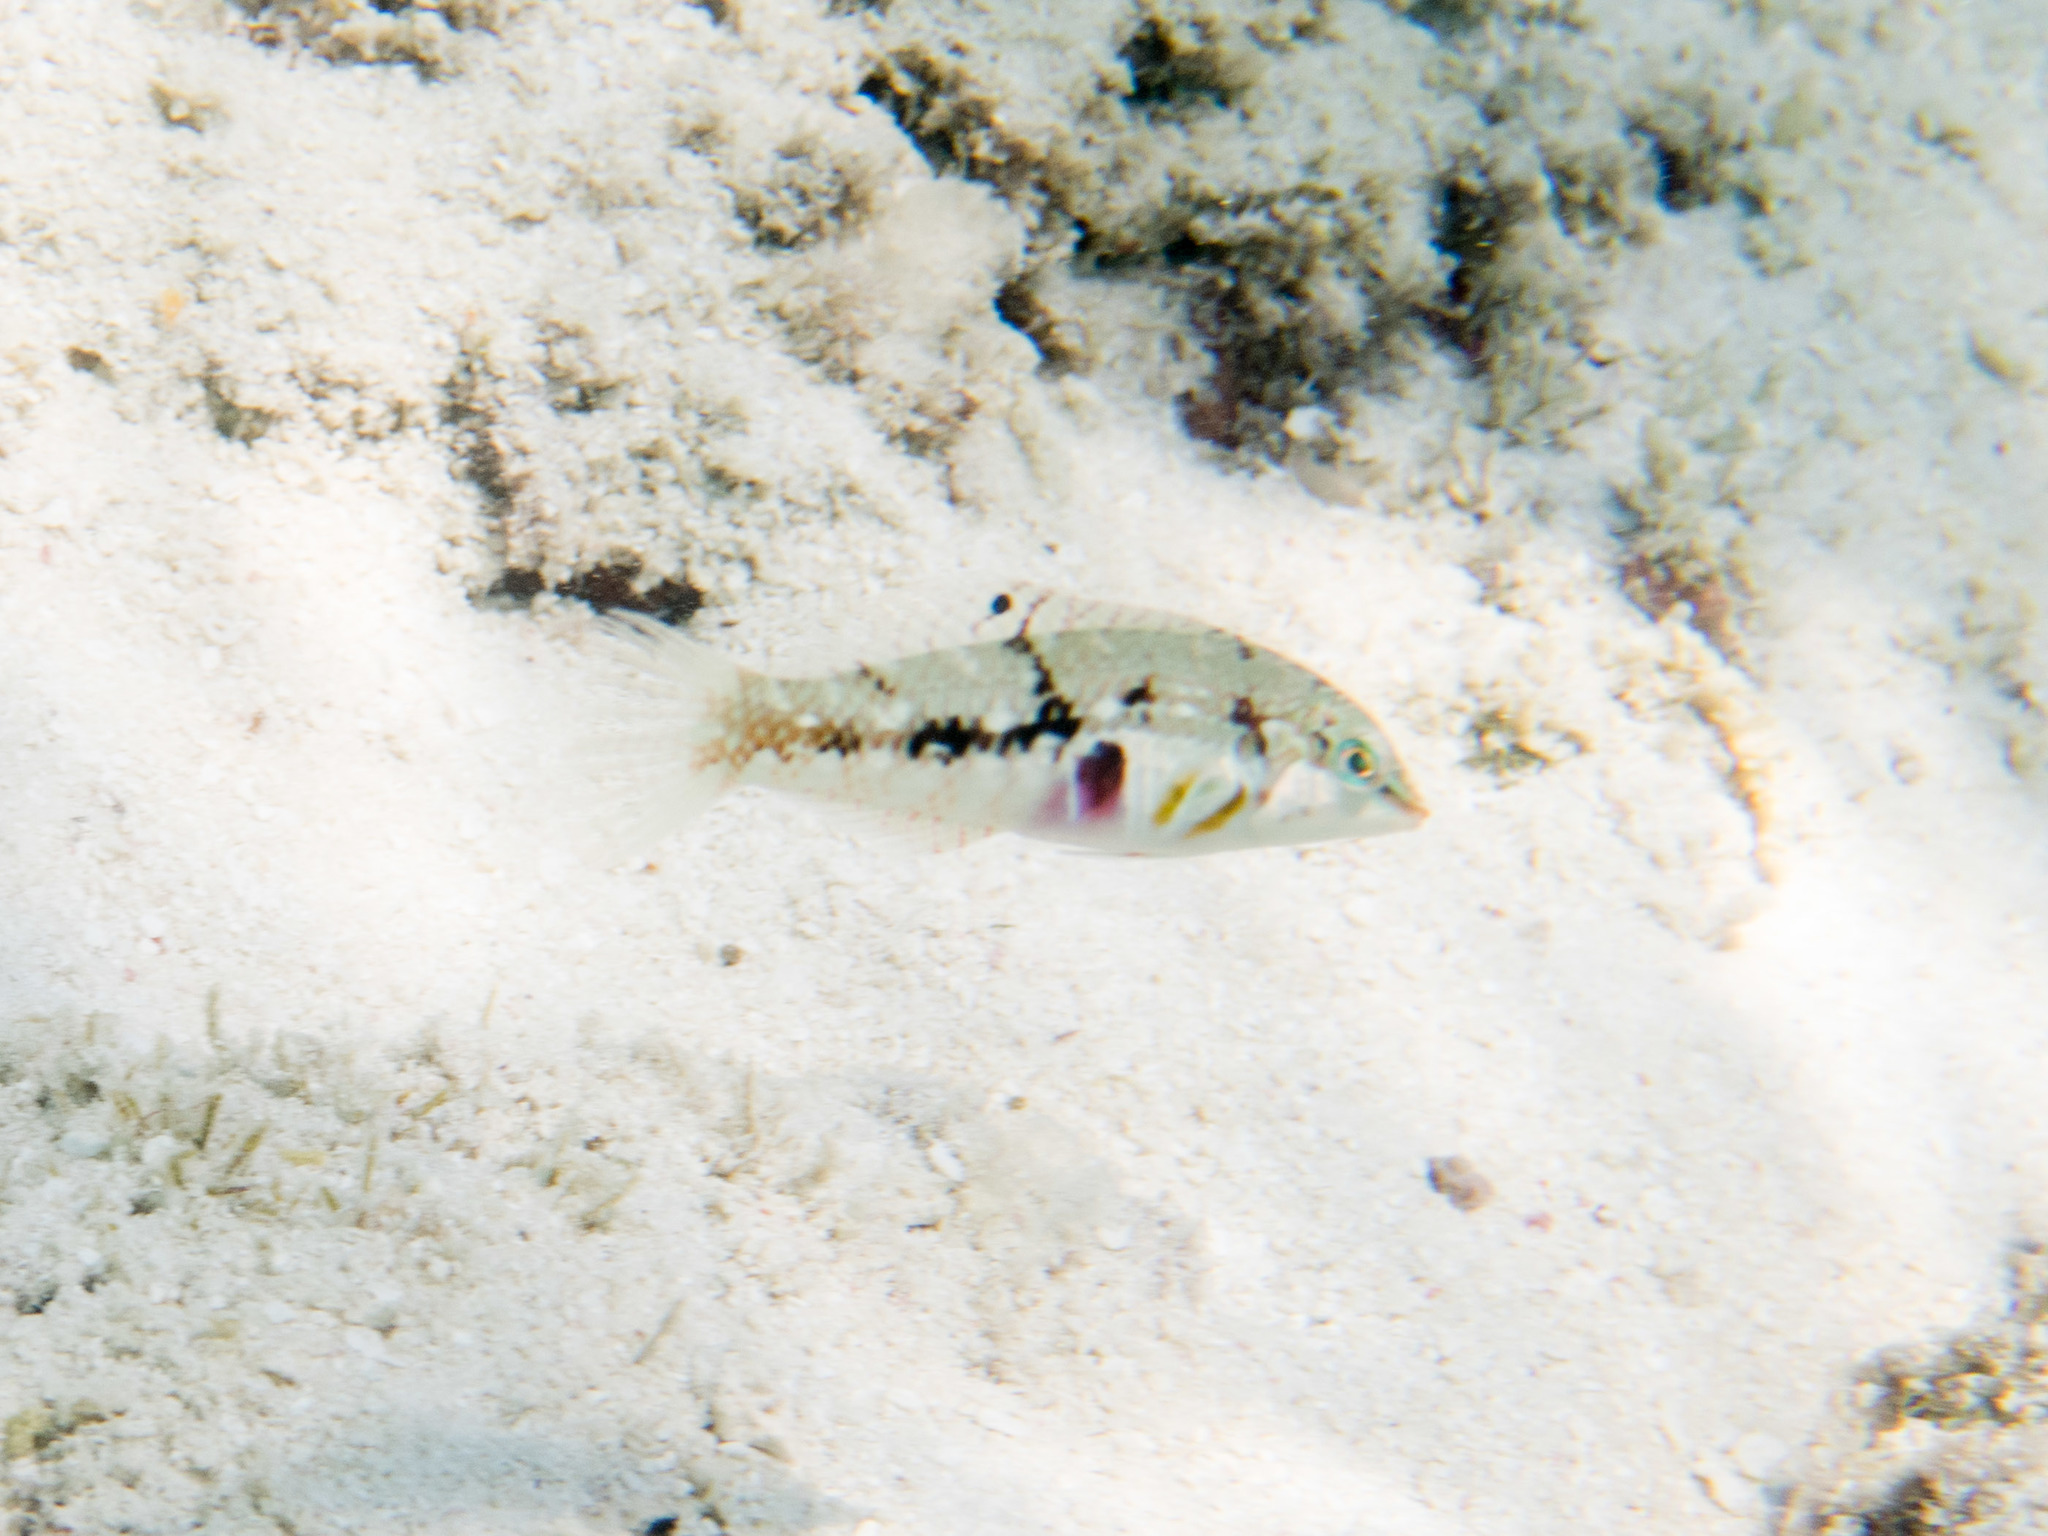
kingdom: Animalia
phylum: Chordata
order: Perciformes
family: Labridae
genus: Halichoeres
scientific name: Halichoeres nebulosus
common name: Clouded wrasse
